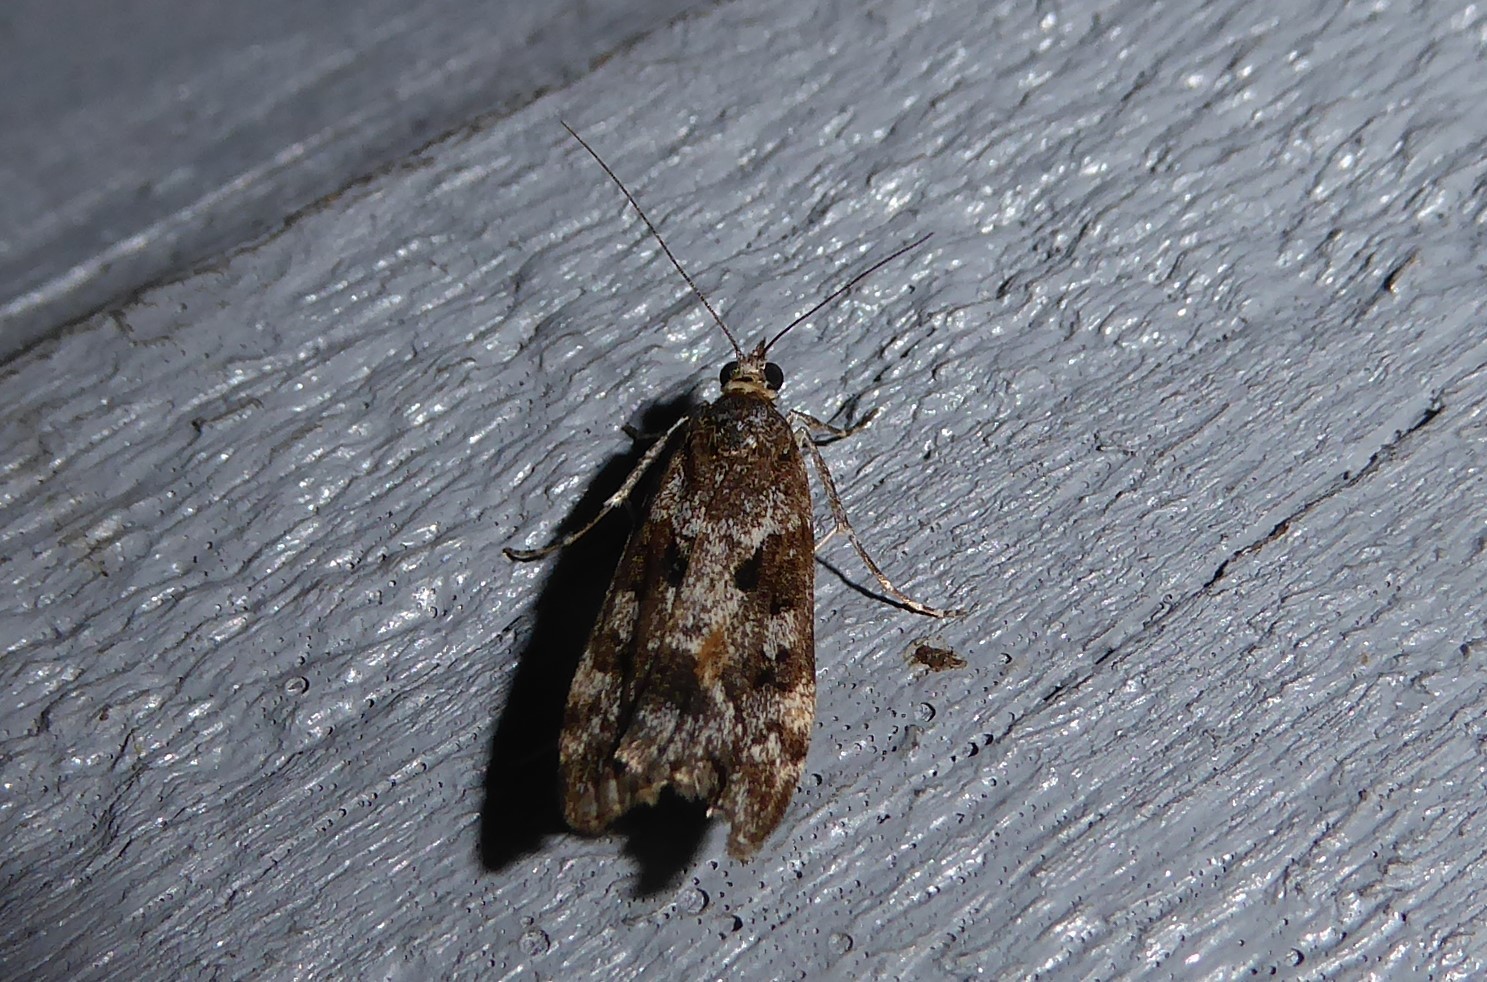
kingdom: Animalia
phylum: Arthropoda
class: Insecta
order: Lepidoptera
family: Crambidae
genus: Eudonia
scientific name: Eudonia submarginalis
